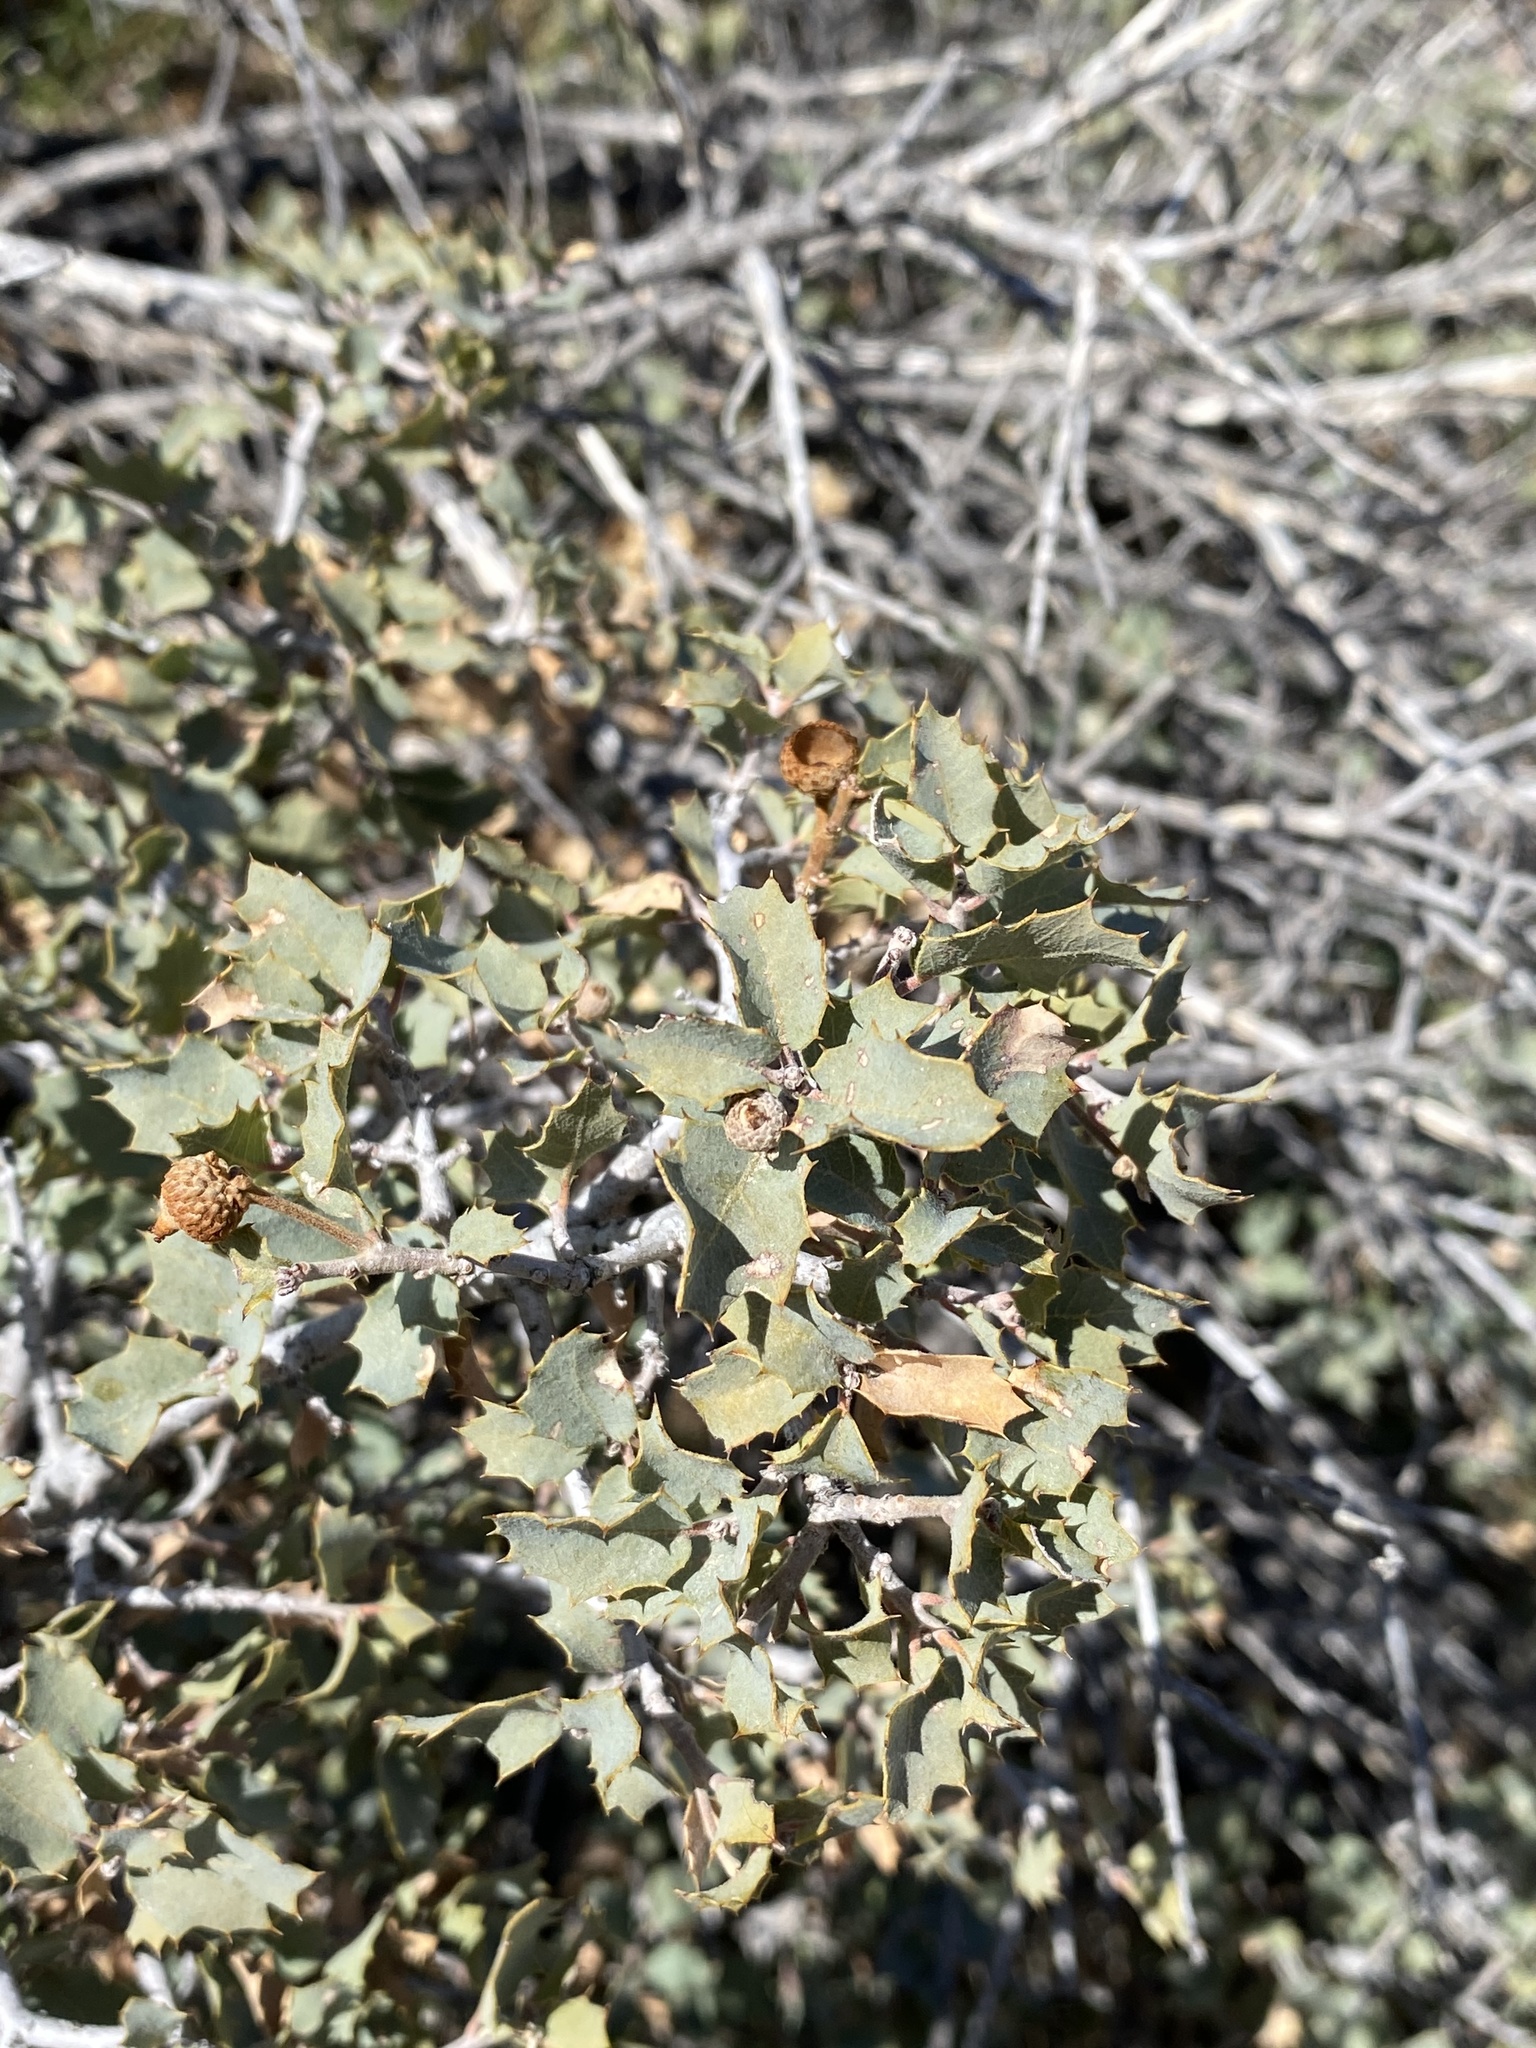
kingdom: Plantae
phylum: Tracheophyta
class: Magnoliopsida
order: Fagales
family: Fagaceae
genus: Quercus
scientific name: Quercus turbinella
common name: Sonoran scrub oak
